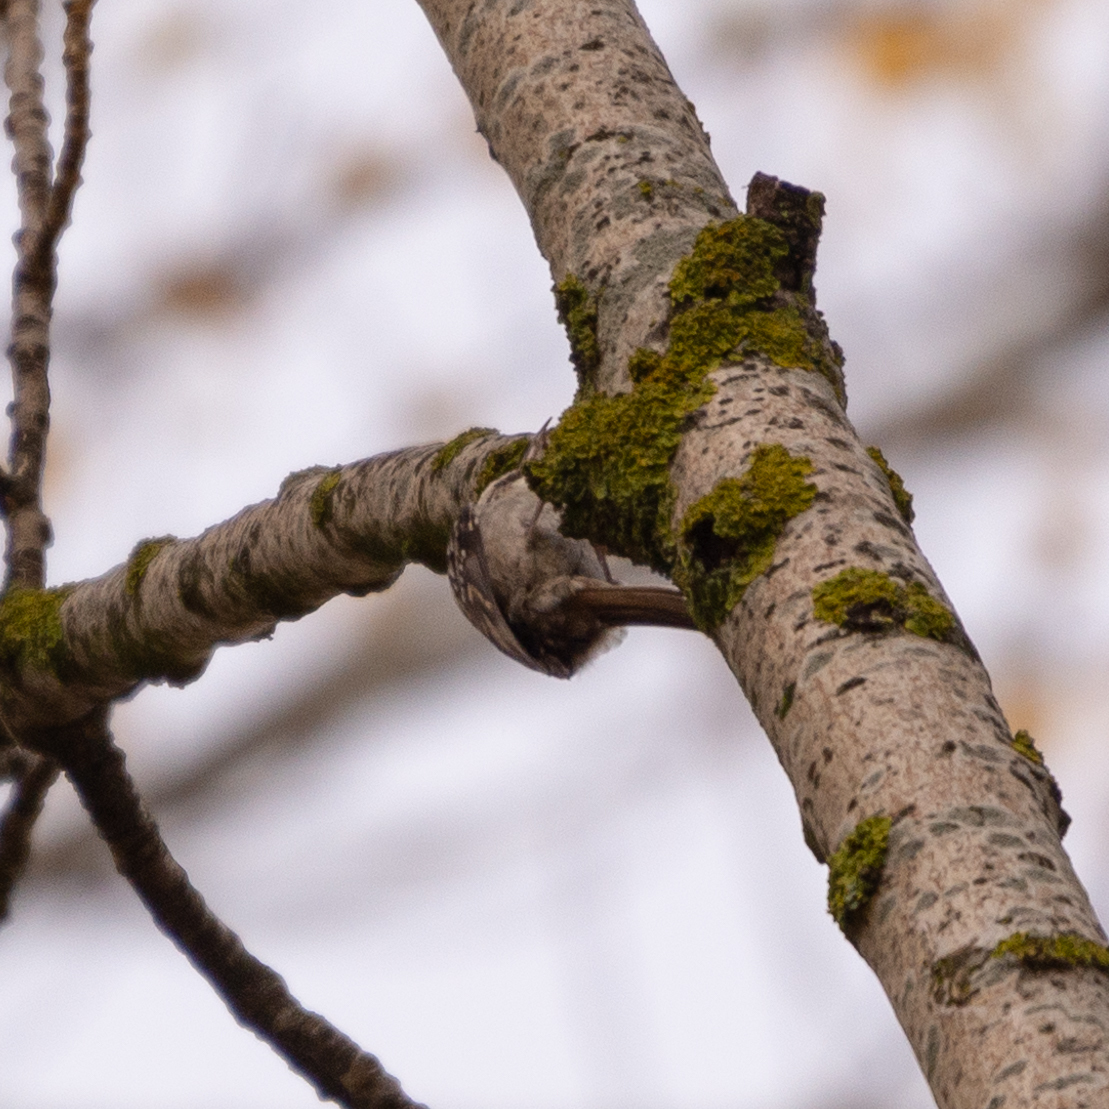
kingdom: Animalia
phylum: Chordata
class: Aves
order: Passeriformes
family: Certhiidae
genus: Certhia
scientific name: Certhia brachydactyla
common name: Short-toed treecreeper
